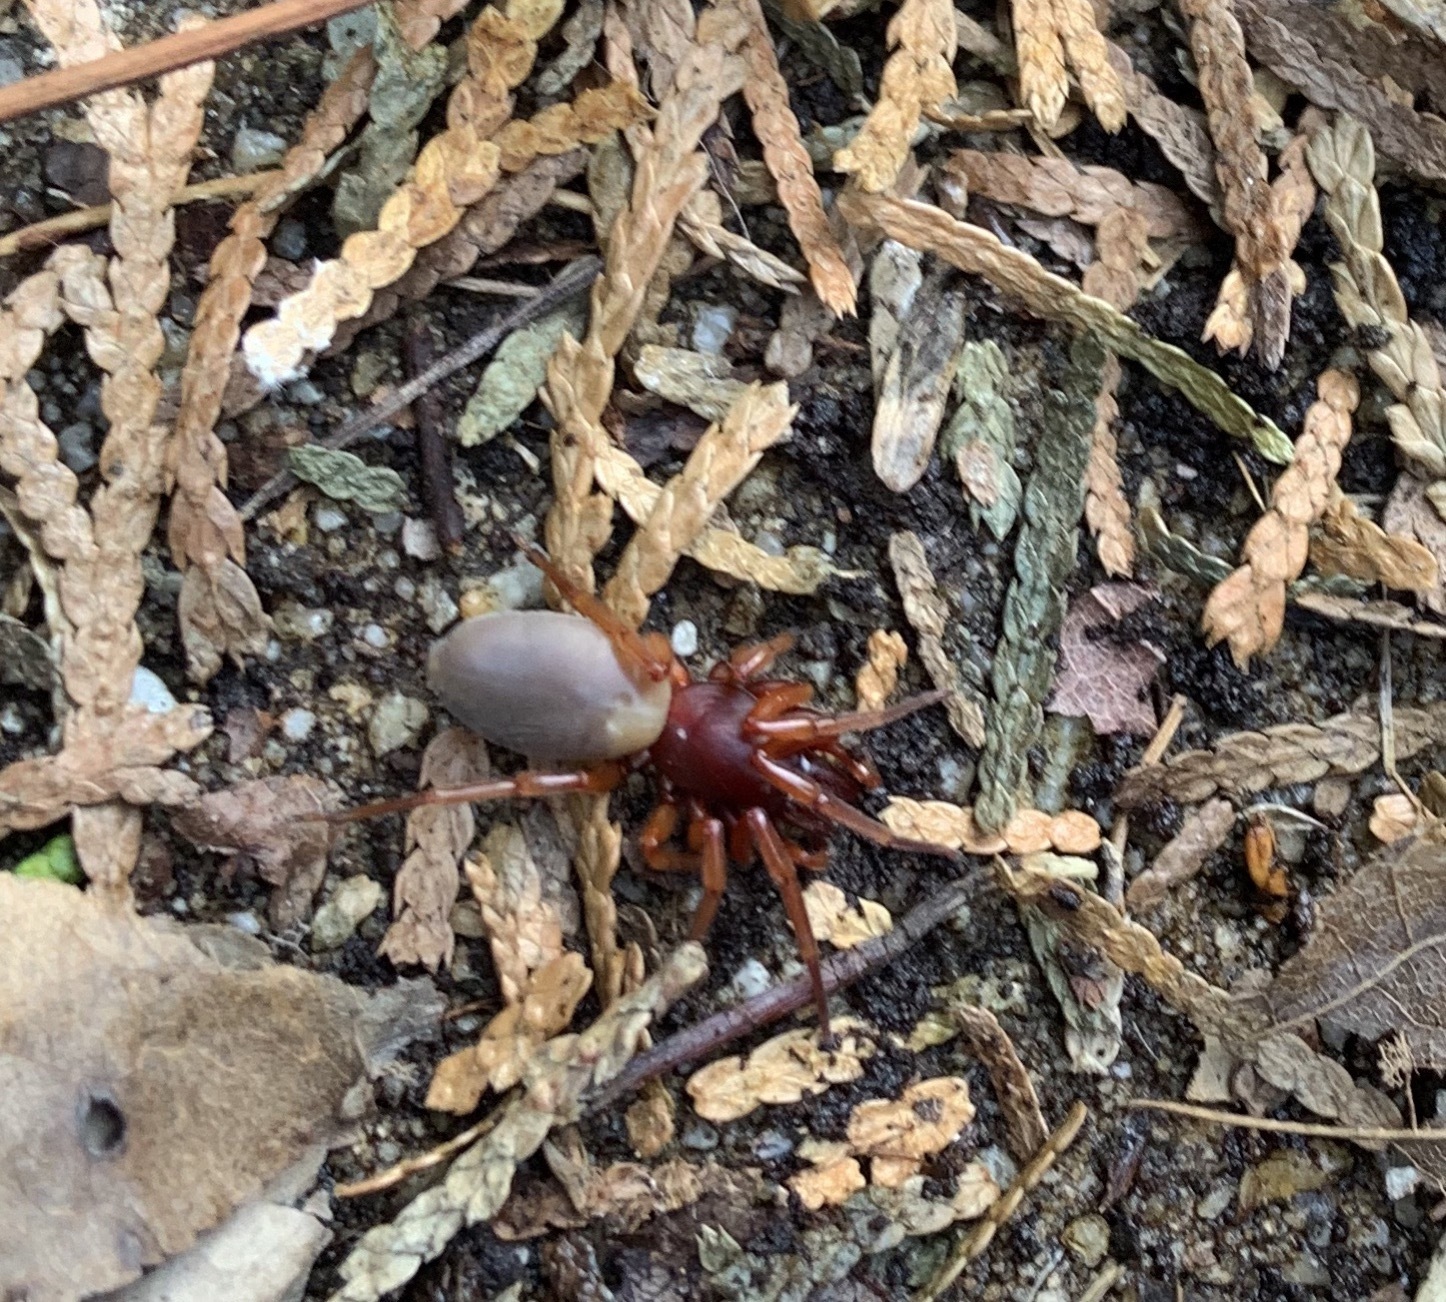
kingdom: Animalia
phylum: Arthropoda
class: Arachnida
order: Araneae
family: Dysderidae
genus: Dysdera
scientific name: Dysdera crocata
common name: Woodlouse spider
